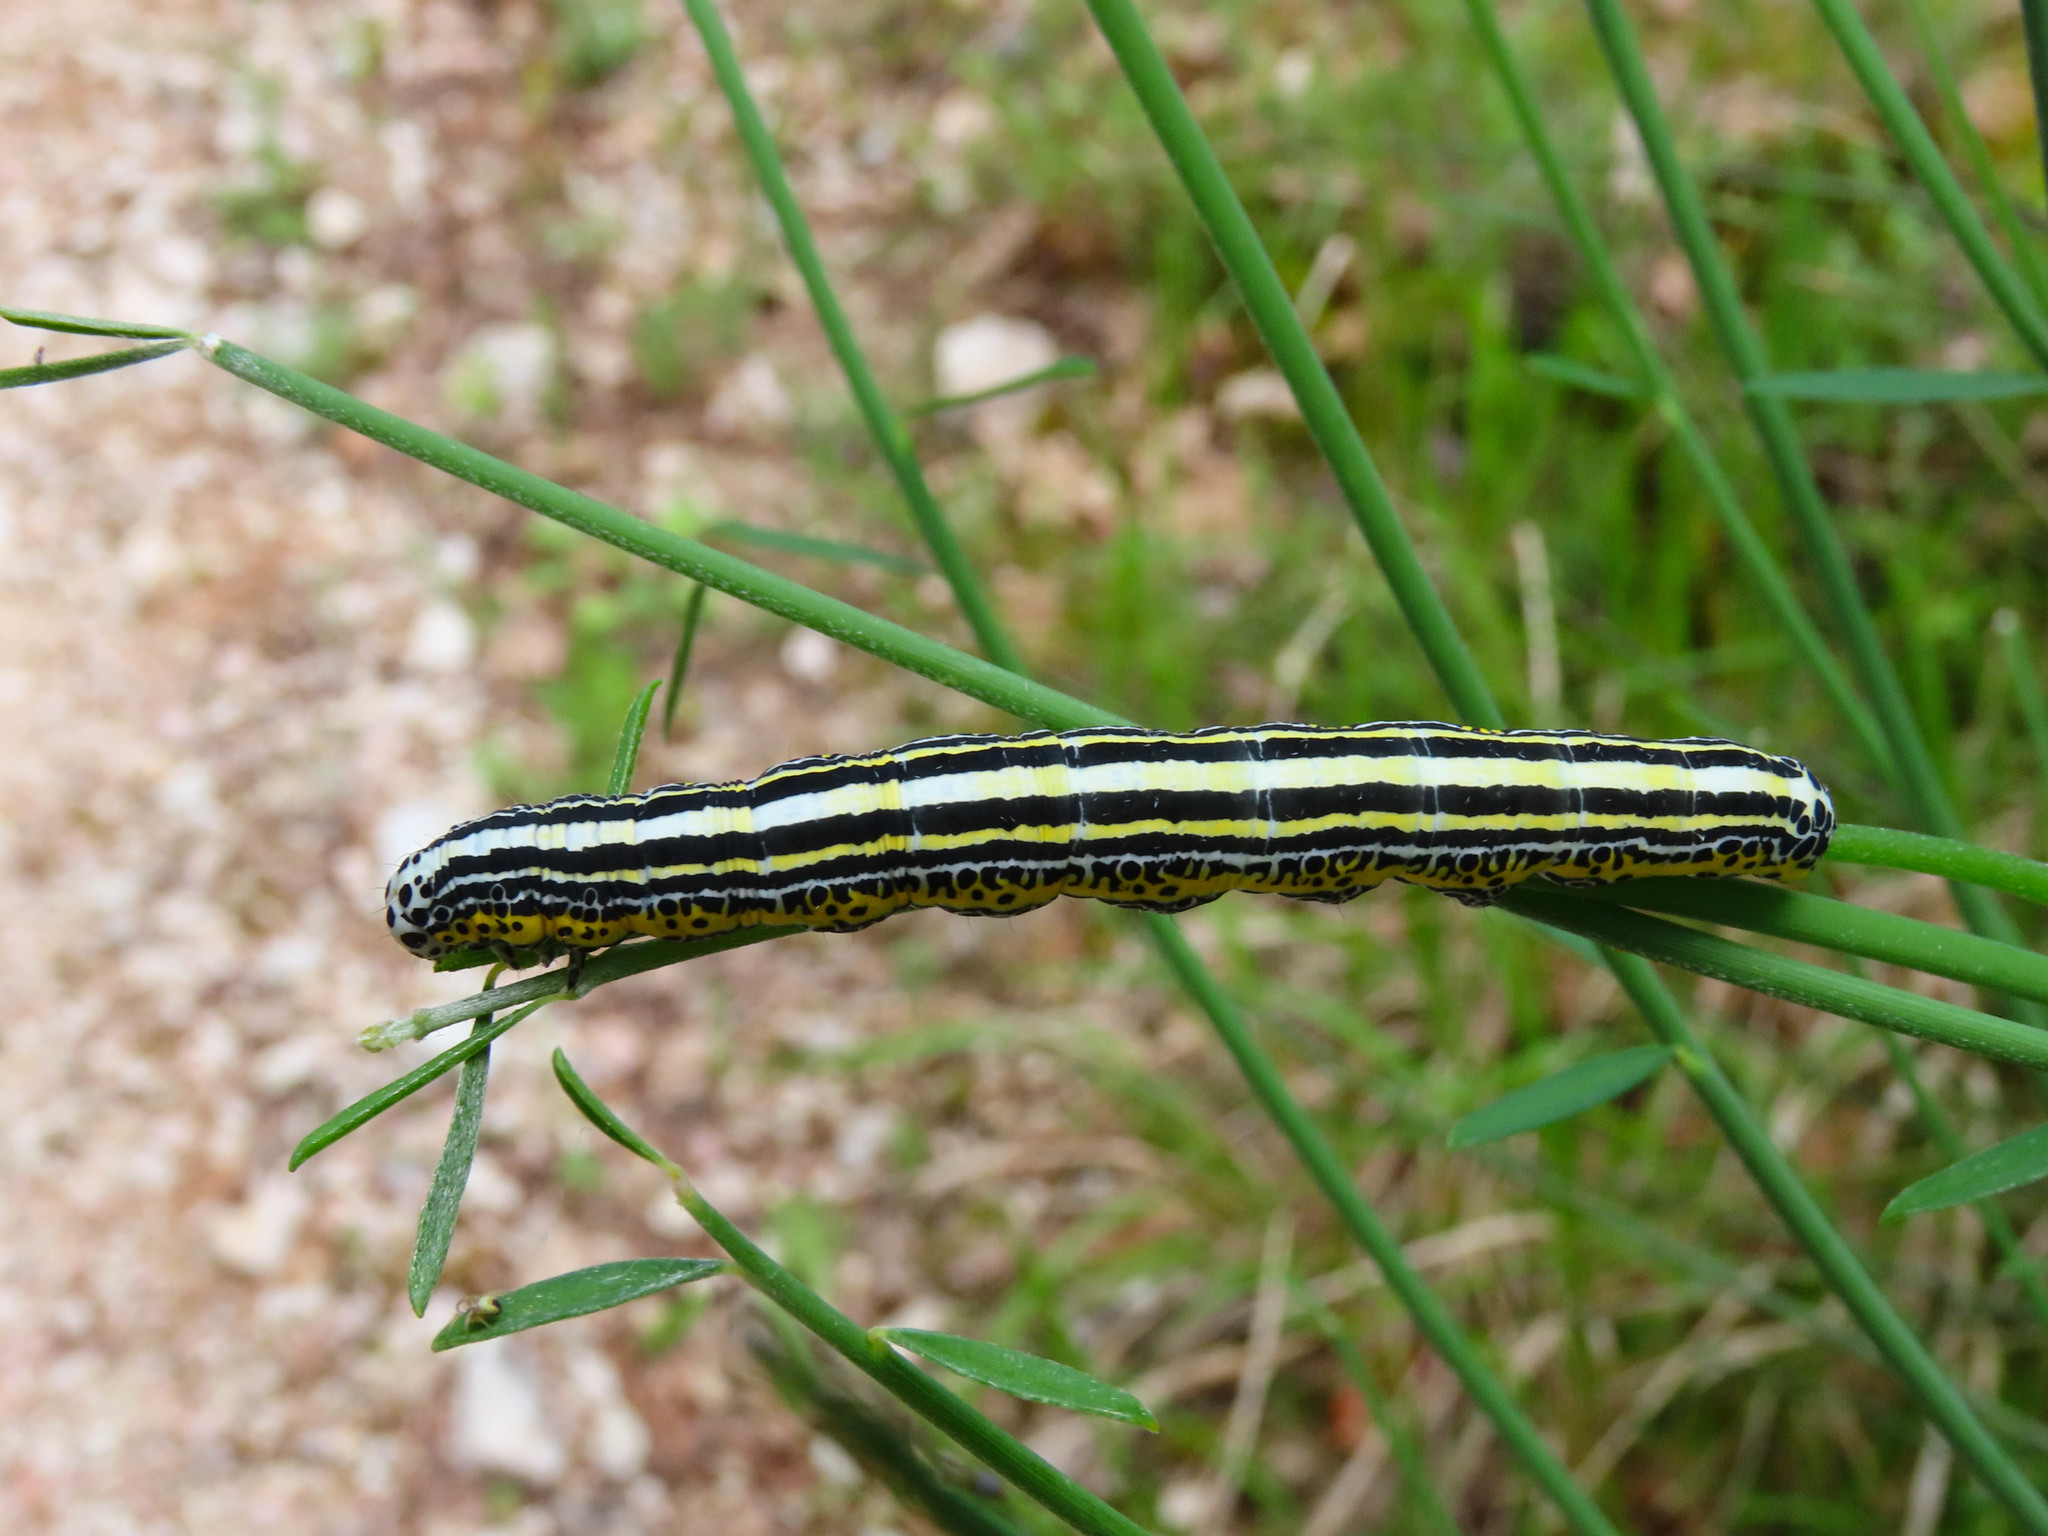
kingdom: Animalia
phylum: Arthropoda
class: Insecta
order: Lepidoptera
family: Erebidae
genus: Apopestes
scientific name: Apopestes spectrum
